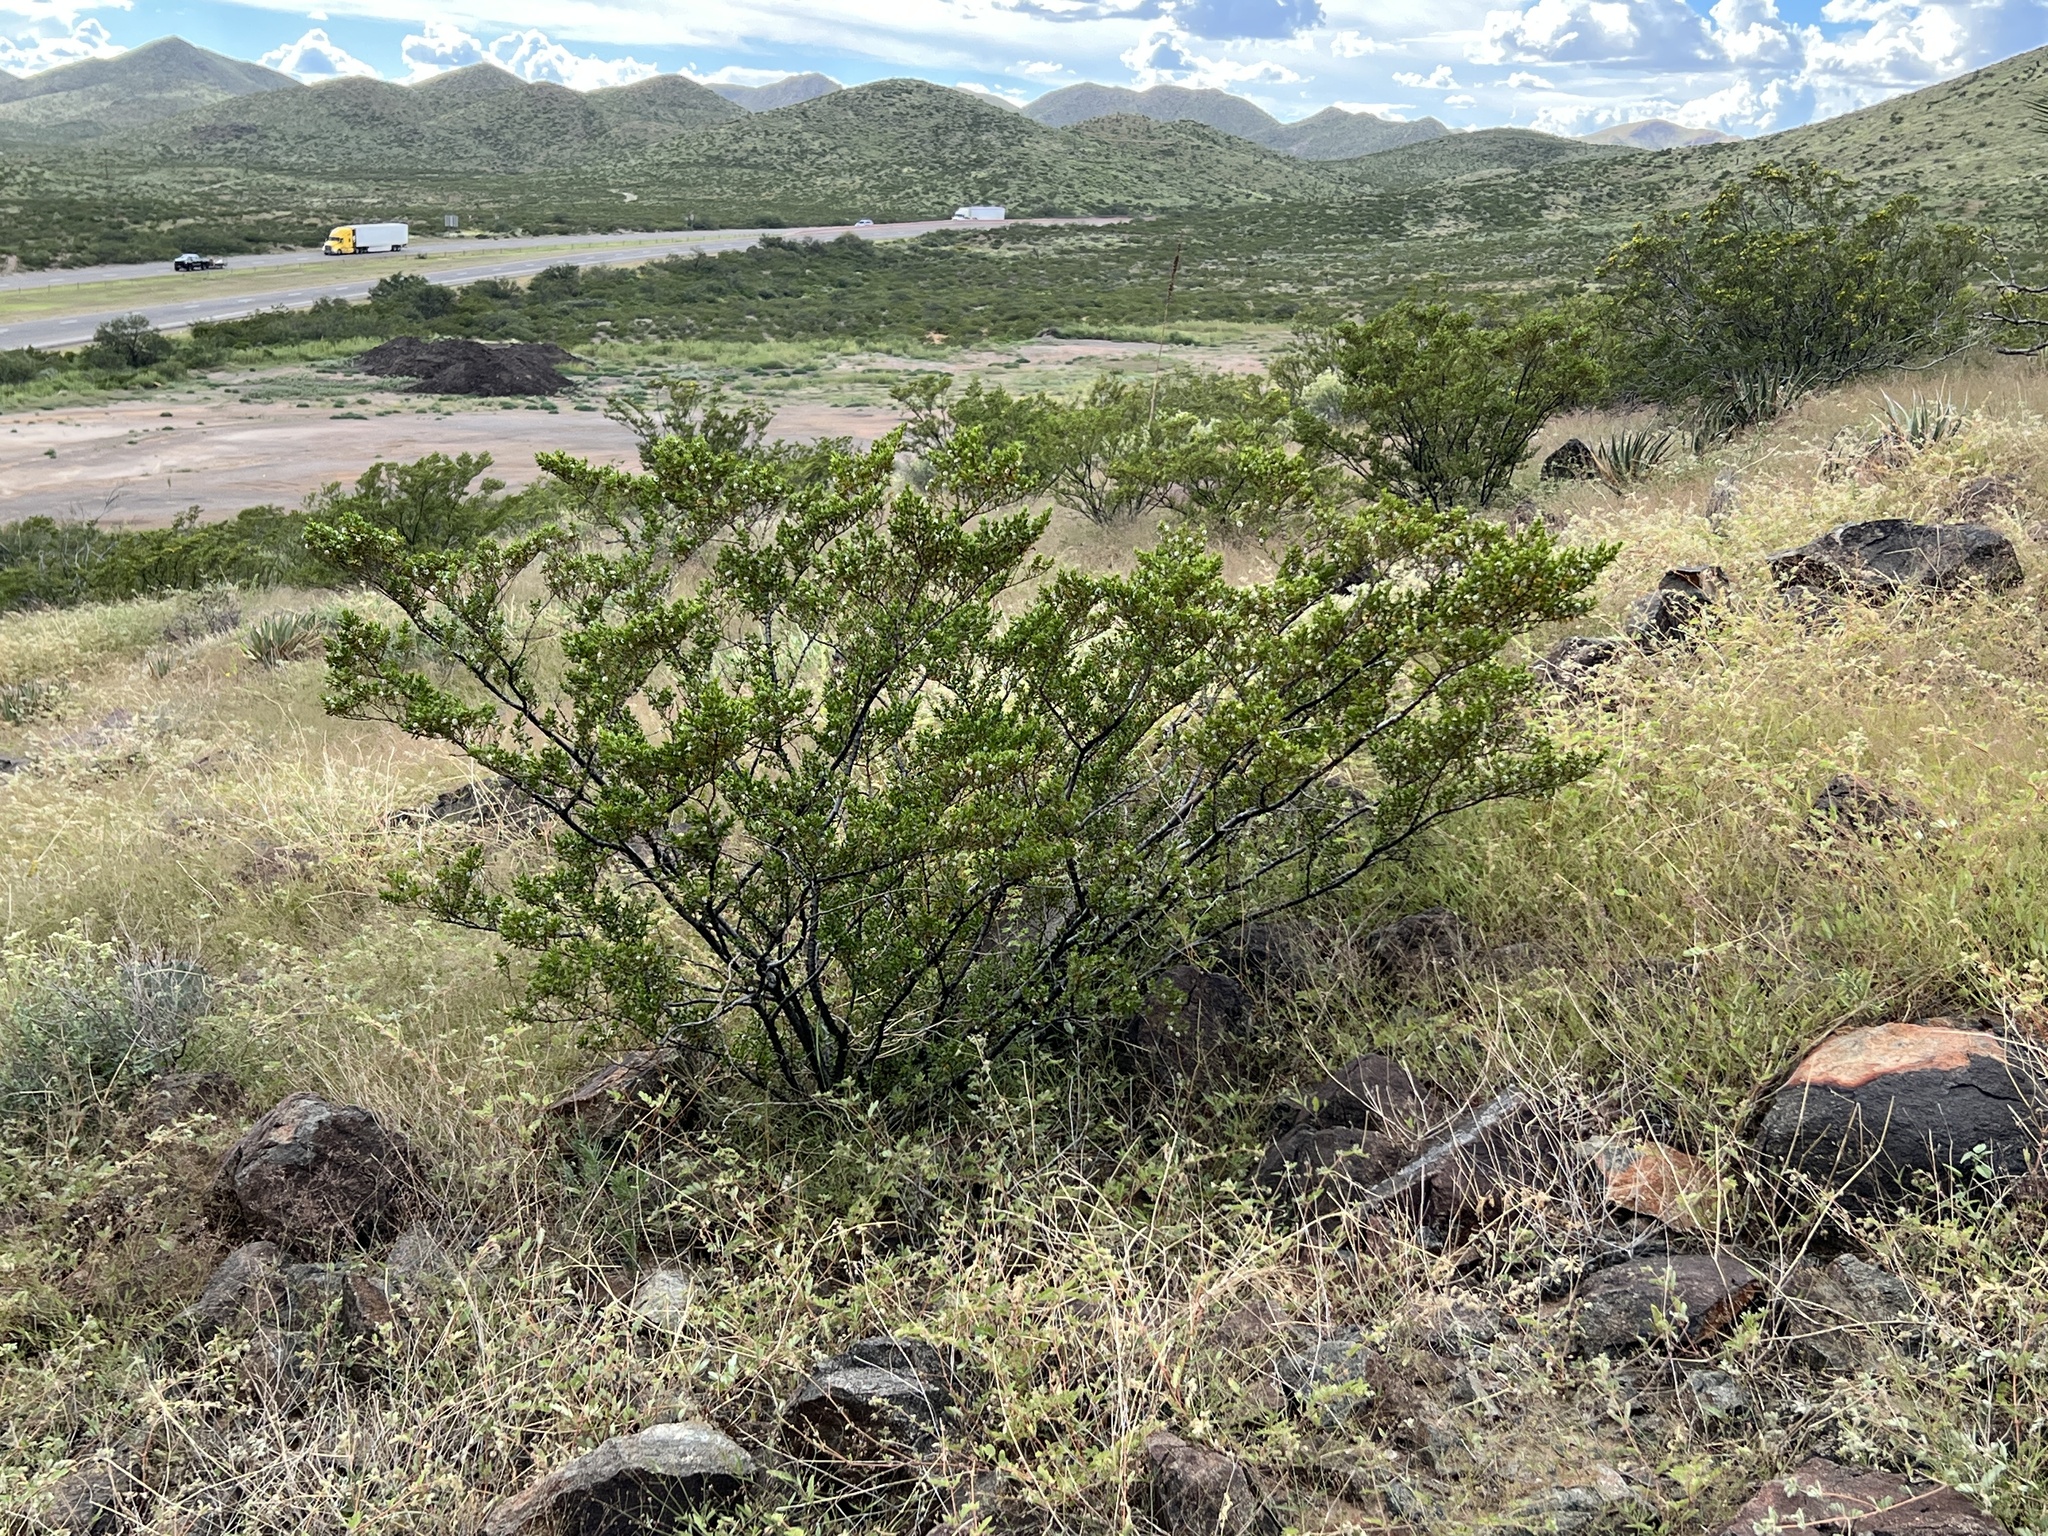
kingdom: Plantae
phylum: Tracheophyta
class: Magnoliopsida
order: Zygophyllales
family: Zygophyllaceae
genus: Larrea
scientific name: Larrea tridentata
